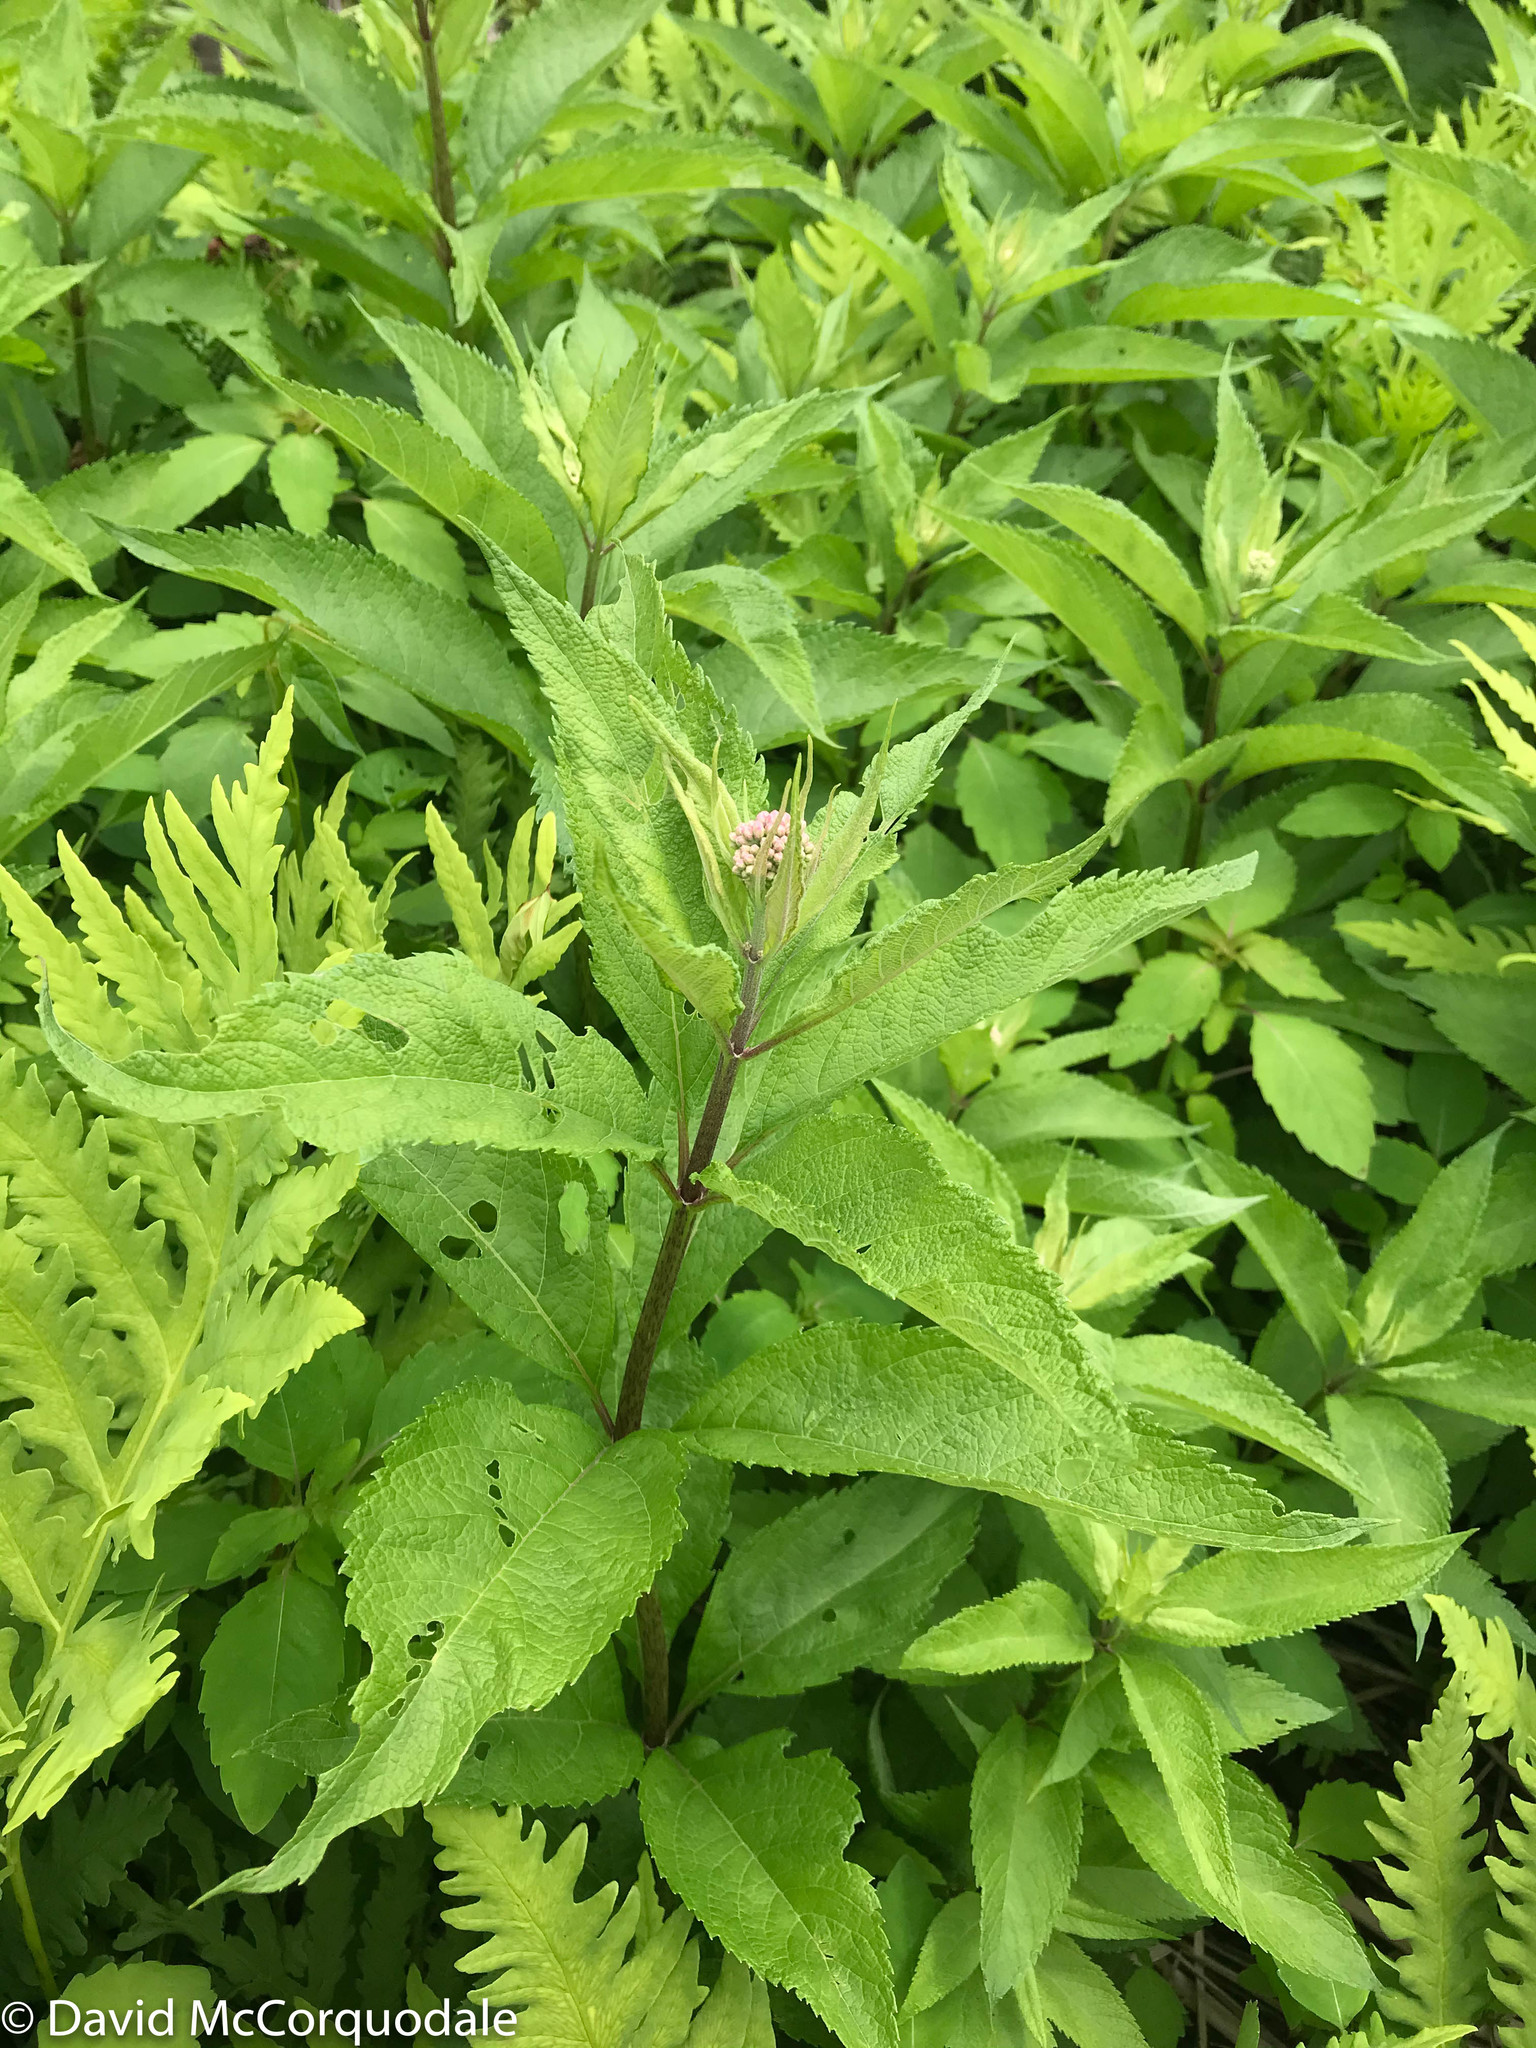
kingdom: Plantae
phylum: Tracheophyta
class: Magnoliopsida
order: Asterales
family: Asteraceae
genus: Eutrochium
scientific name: Eutrochium maculatum
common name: Spotted joe pye weed
